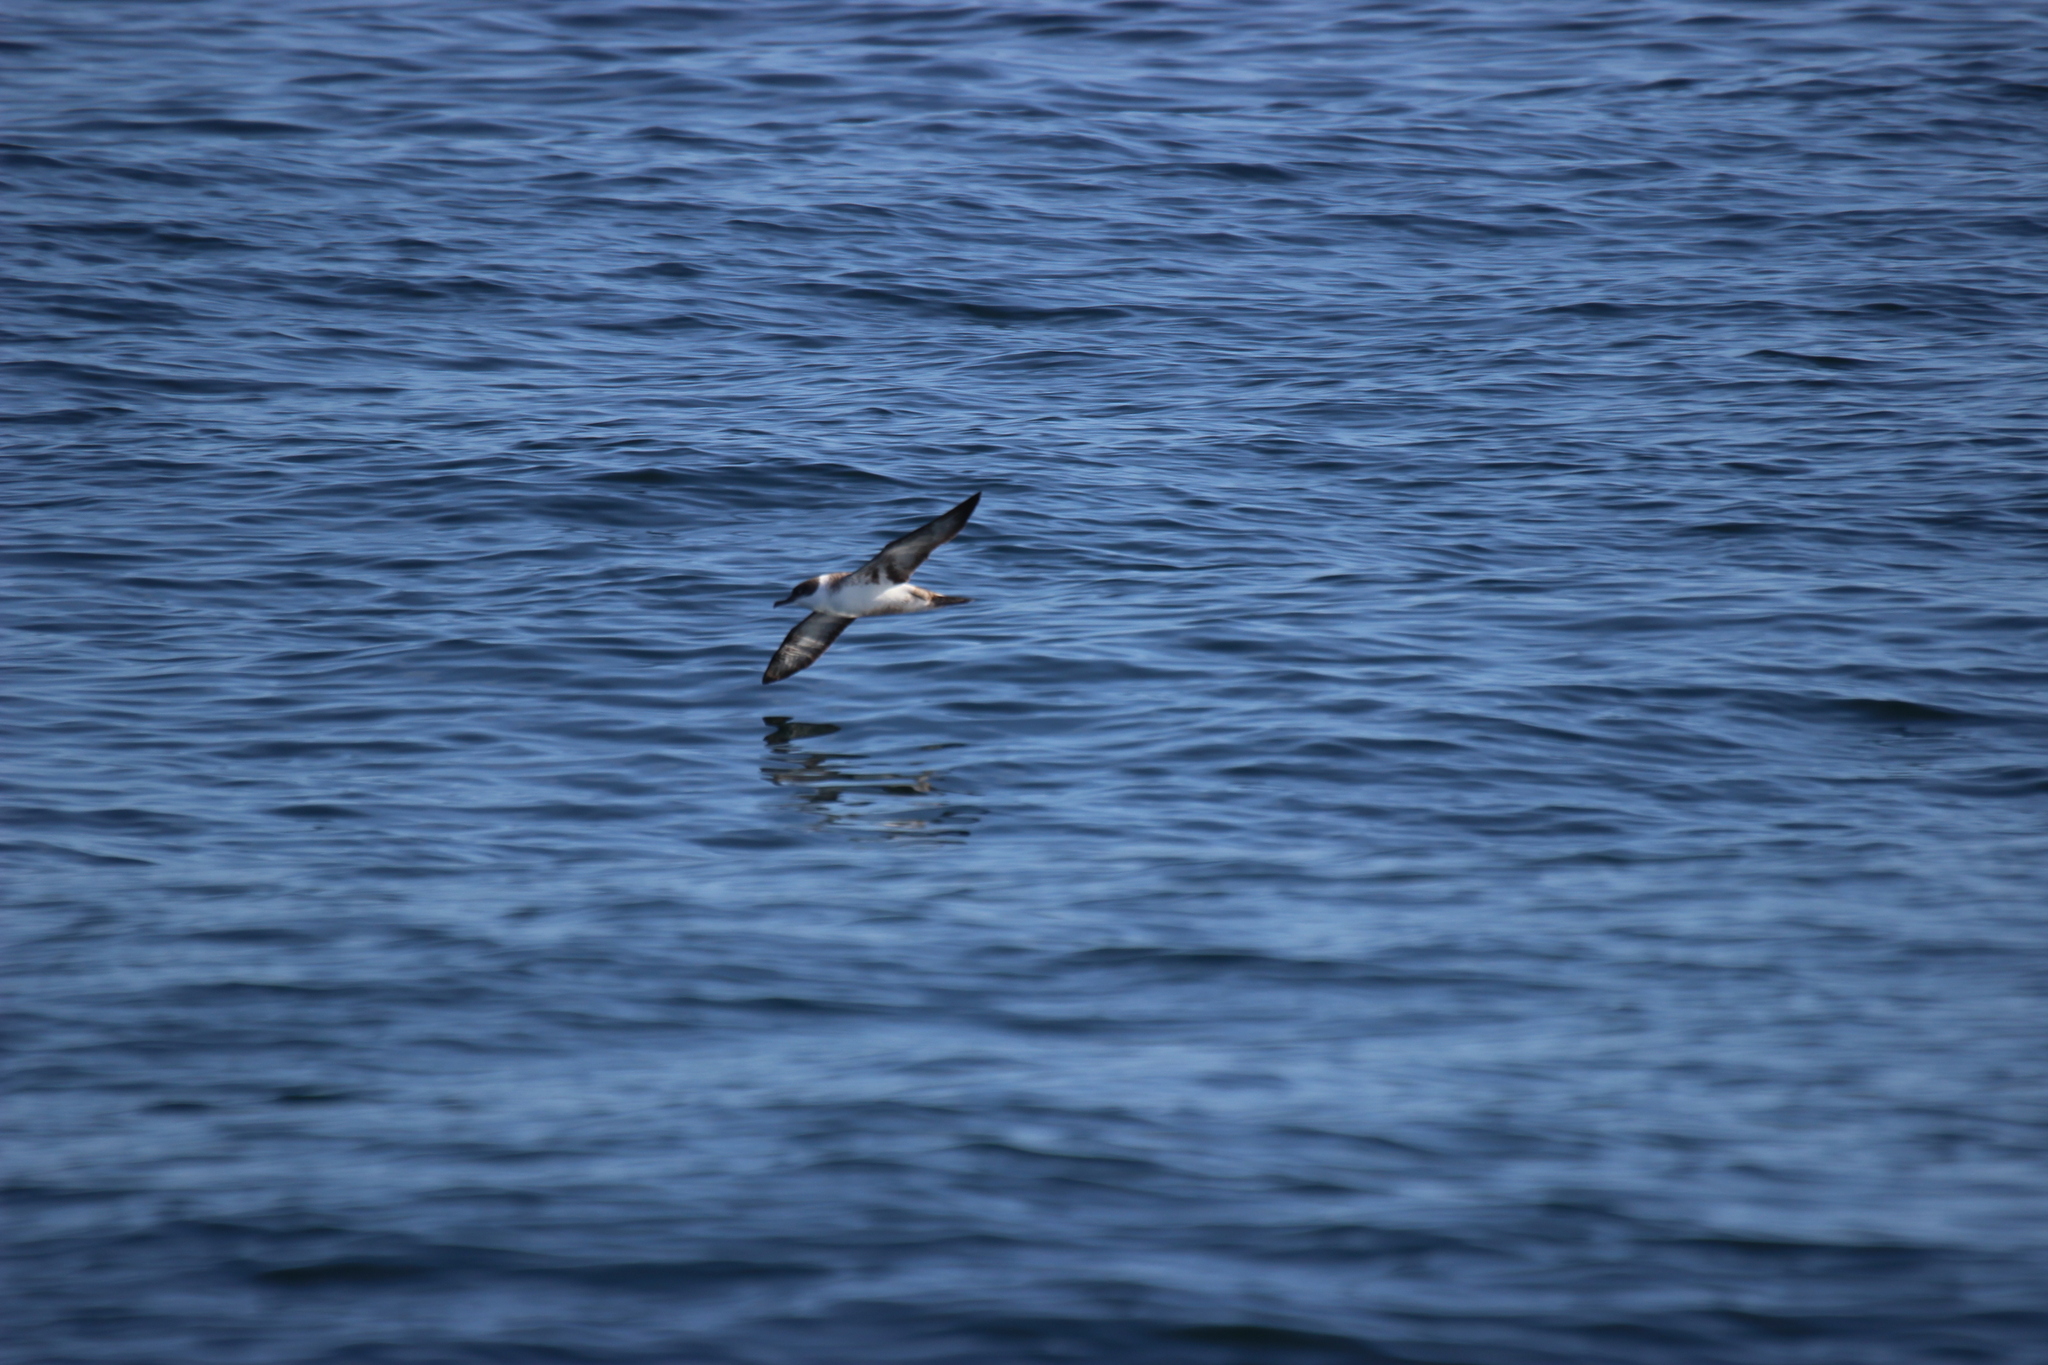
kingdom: Animalia
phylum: Chordata
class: Aves
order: Procellariiformes
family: Procellariidae
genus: Puffinus
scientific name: Puffinus gravis
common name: Great shearwater
